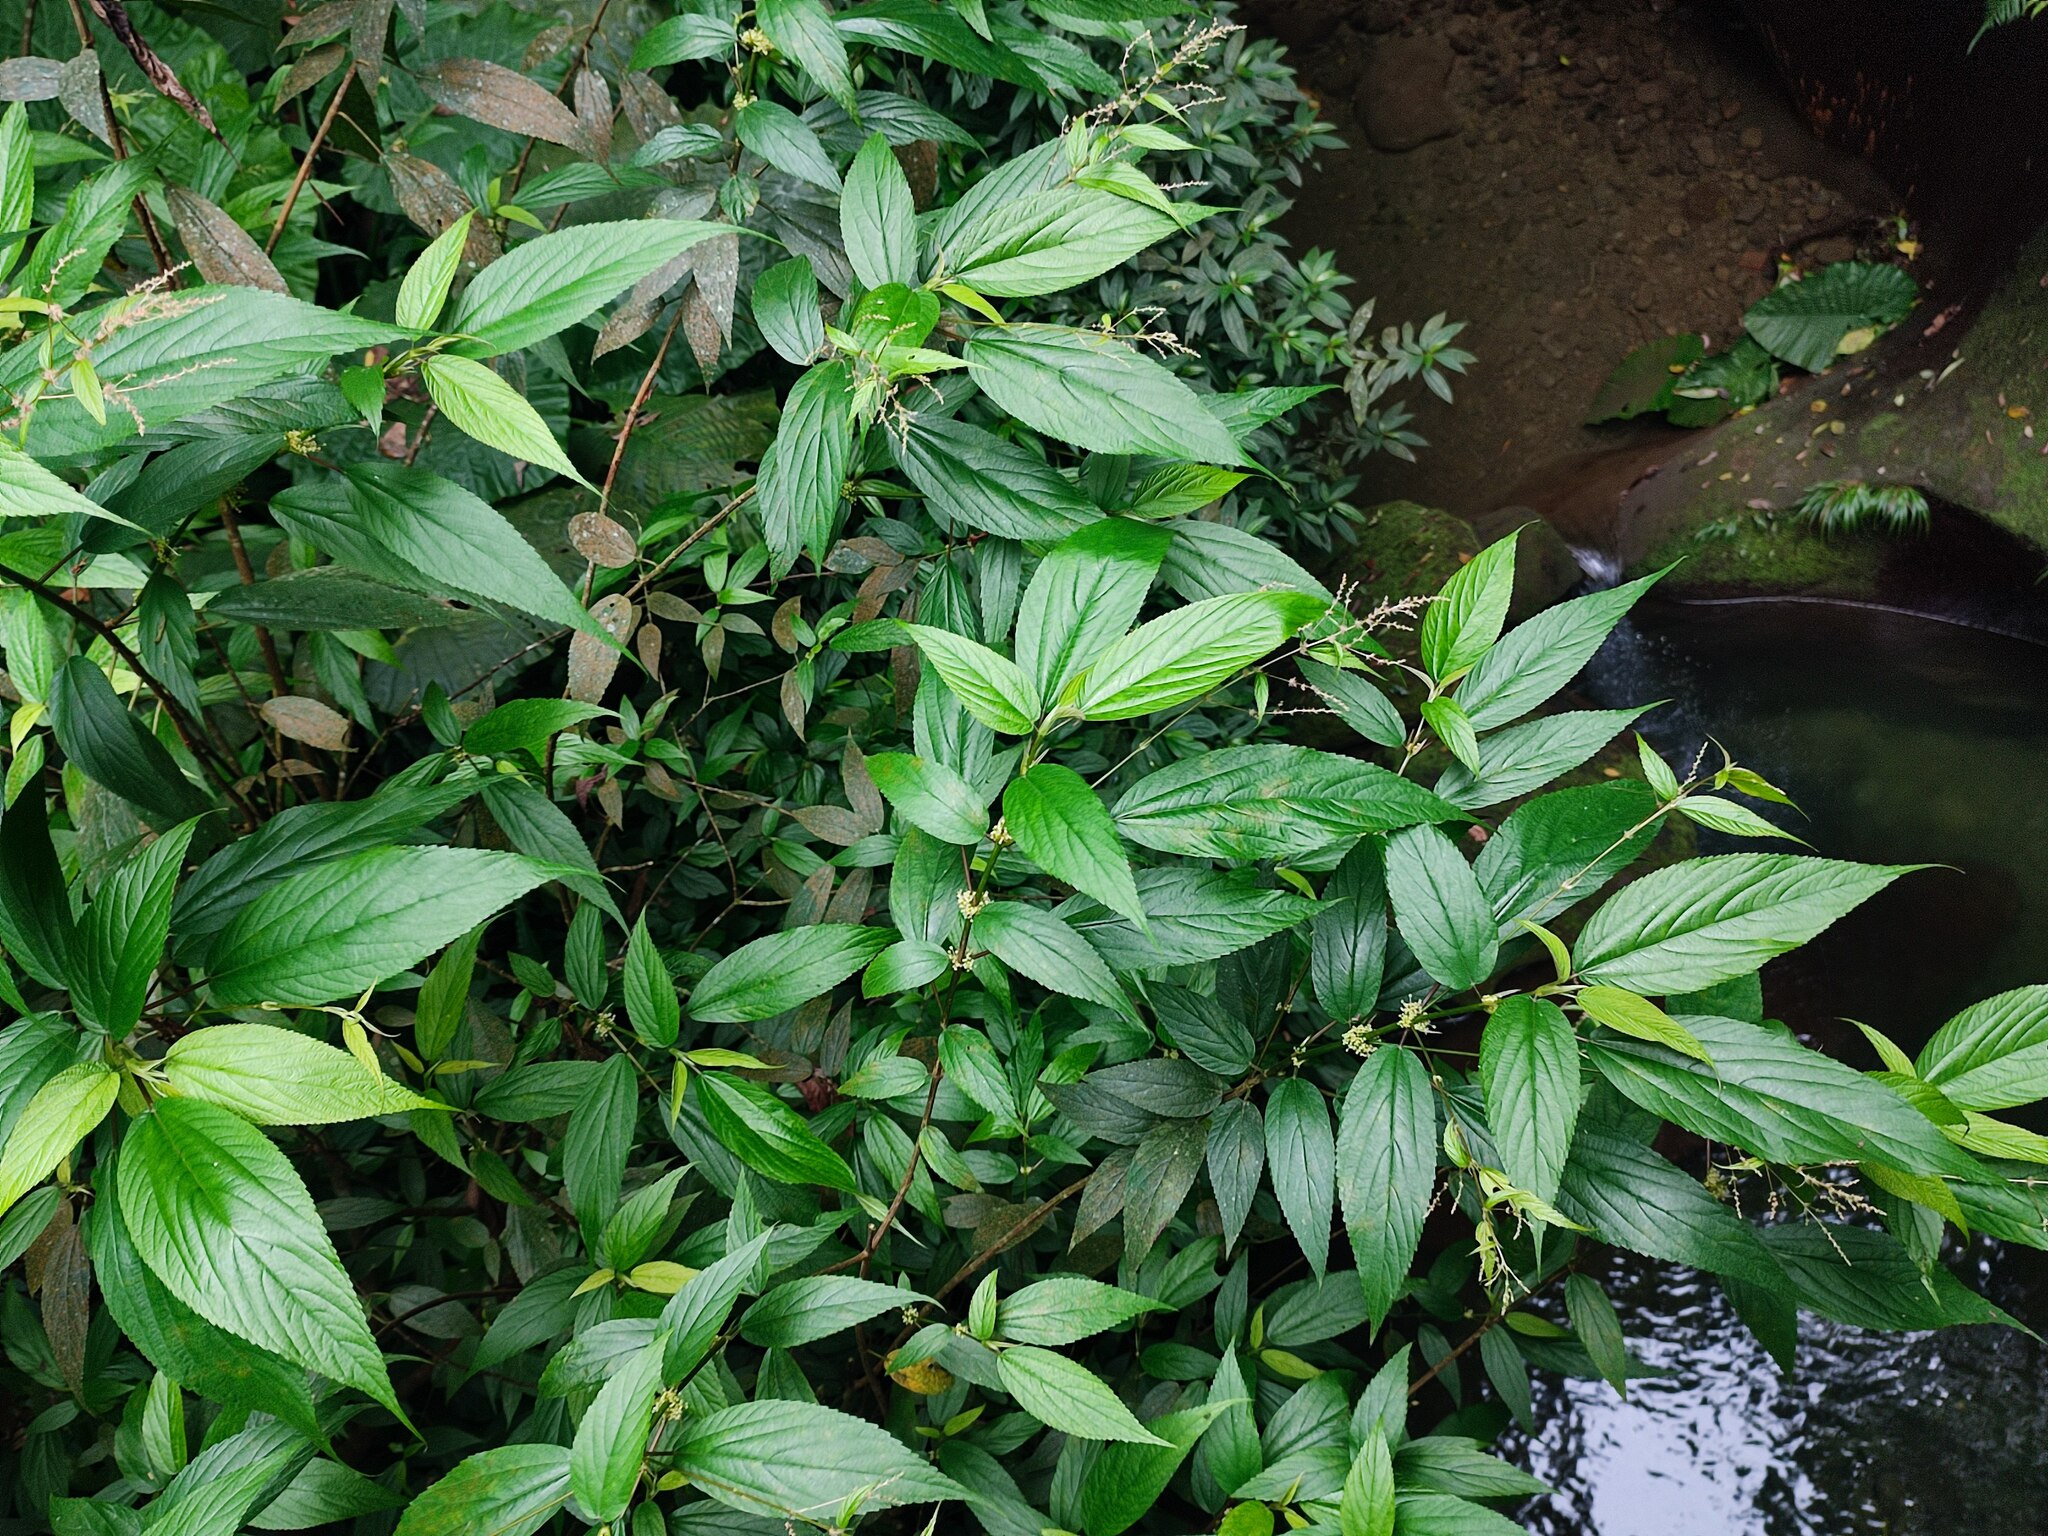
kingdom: Plantae
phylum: Tracheophyta
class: Magnoliopsida
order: Rosales
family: Urticaceae
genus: Boehmeria
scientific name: Boehmeria zollingeriana
